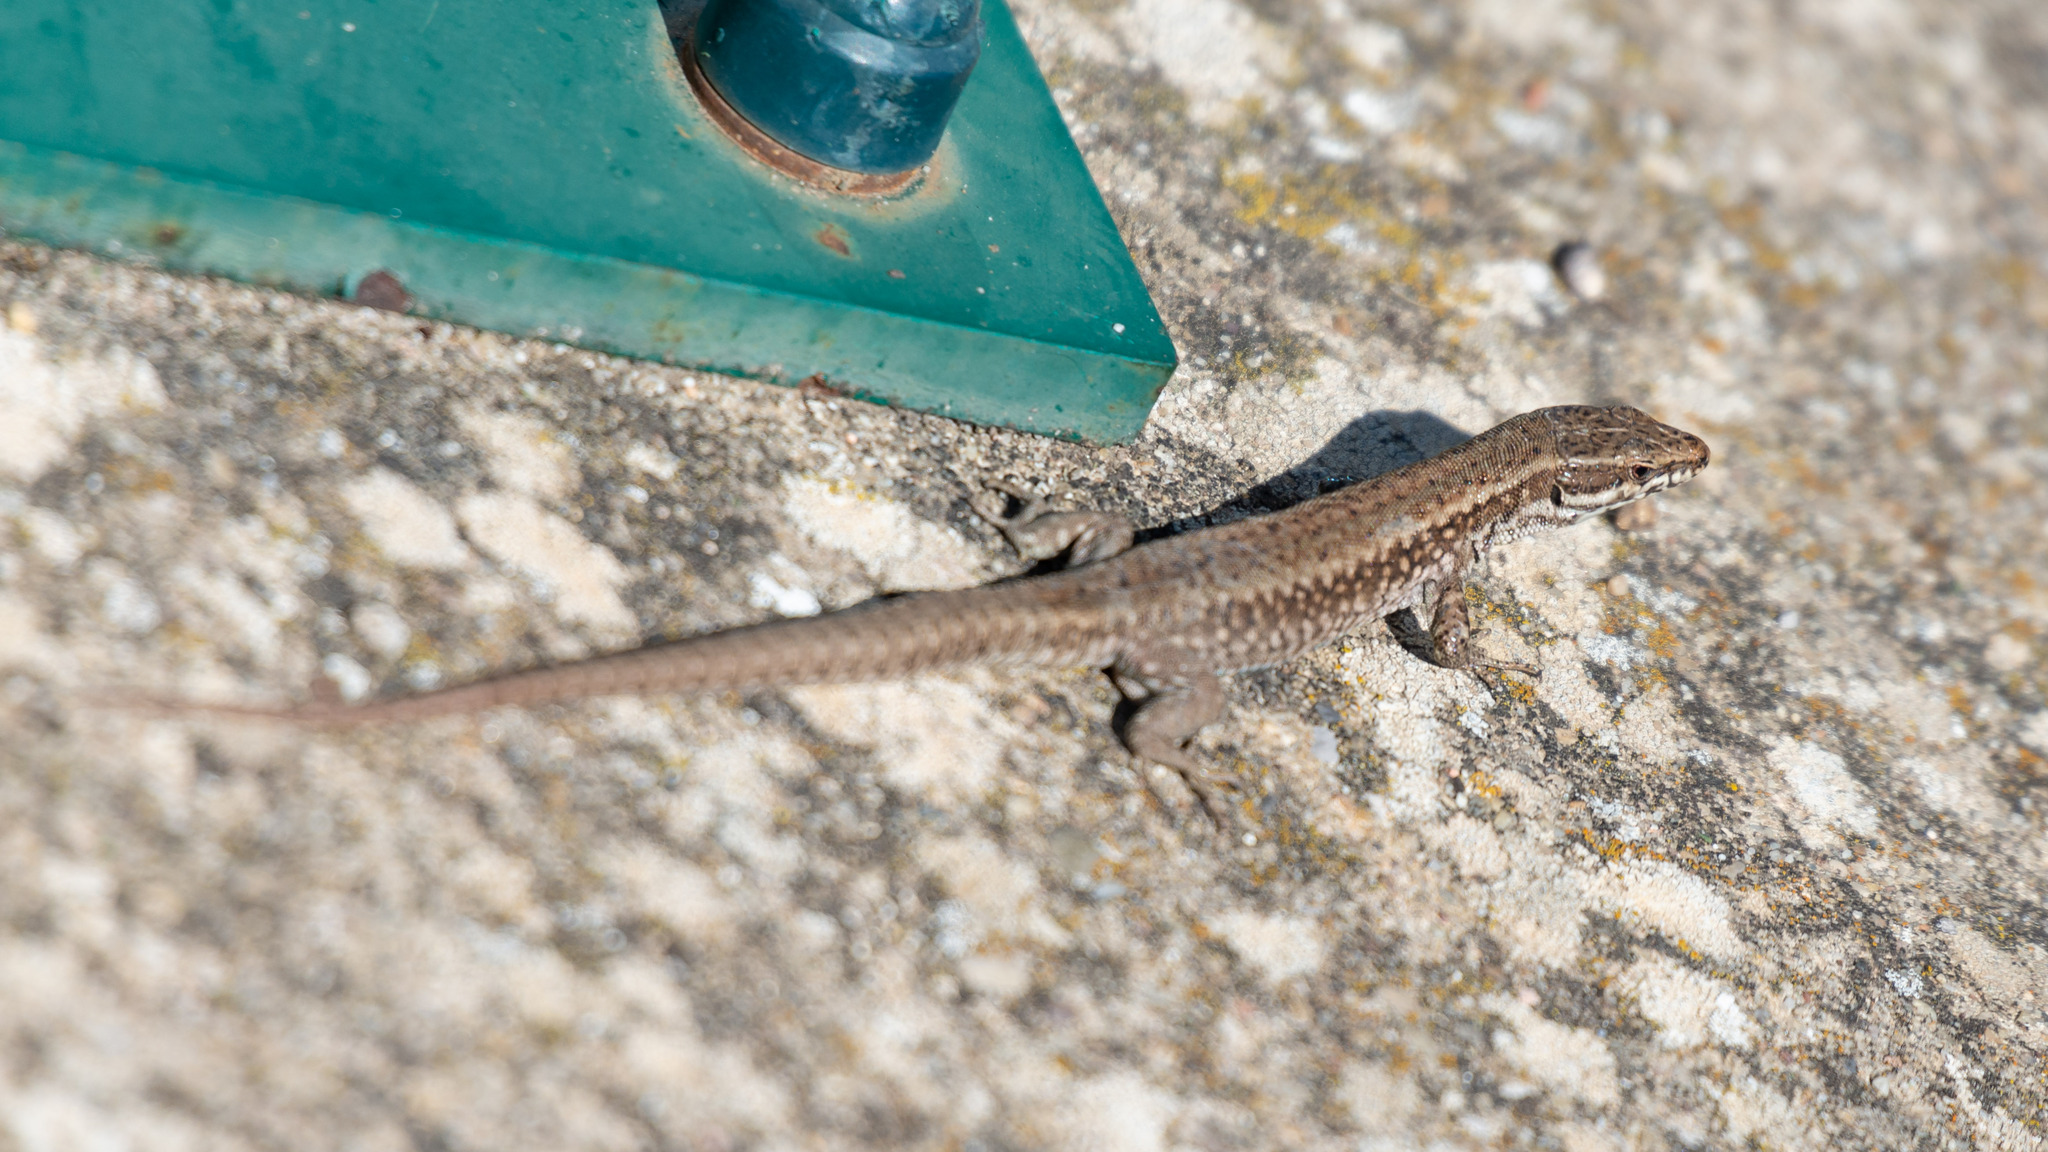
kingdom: Animalia
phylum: Chordata
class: Squamata
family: Lacertidae
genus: Podarcis
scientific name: Podarcis muralis
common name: Common wall lizard
